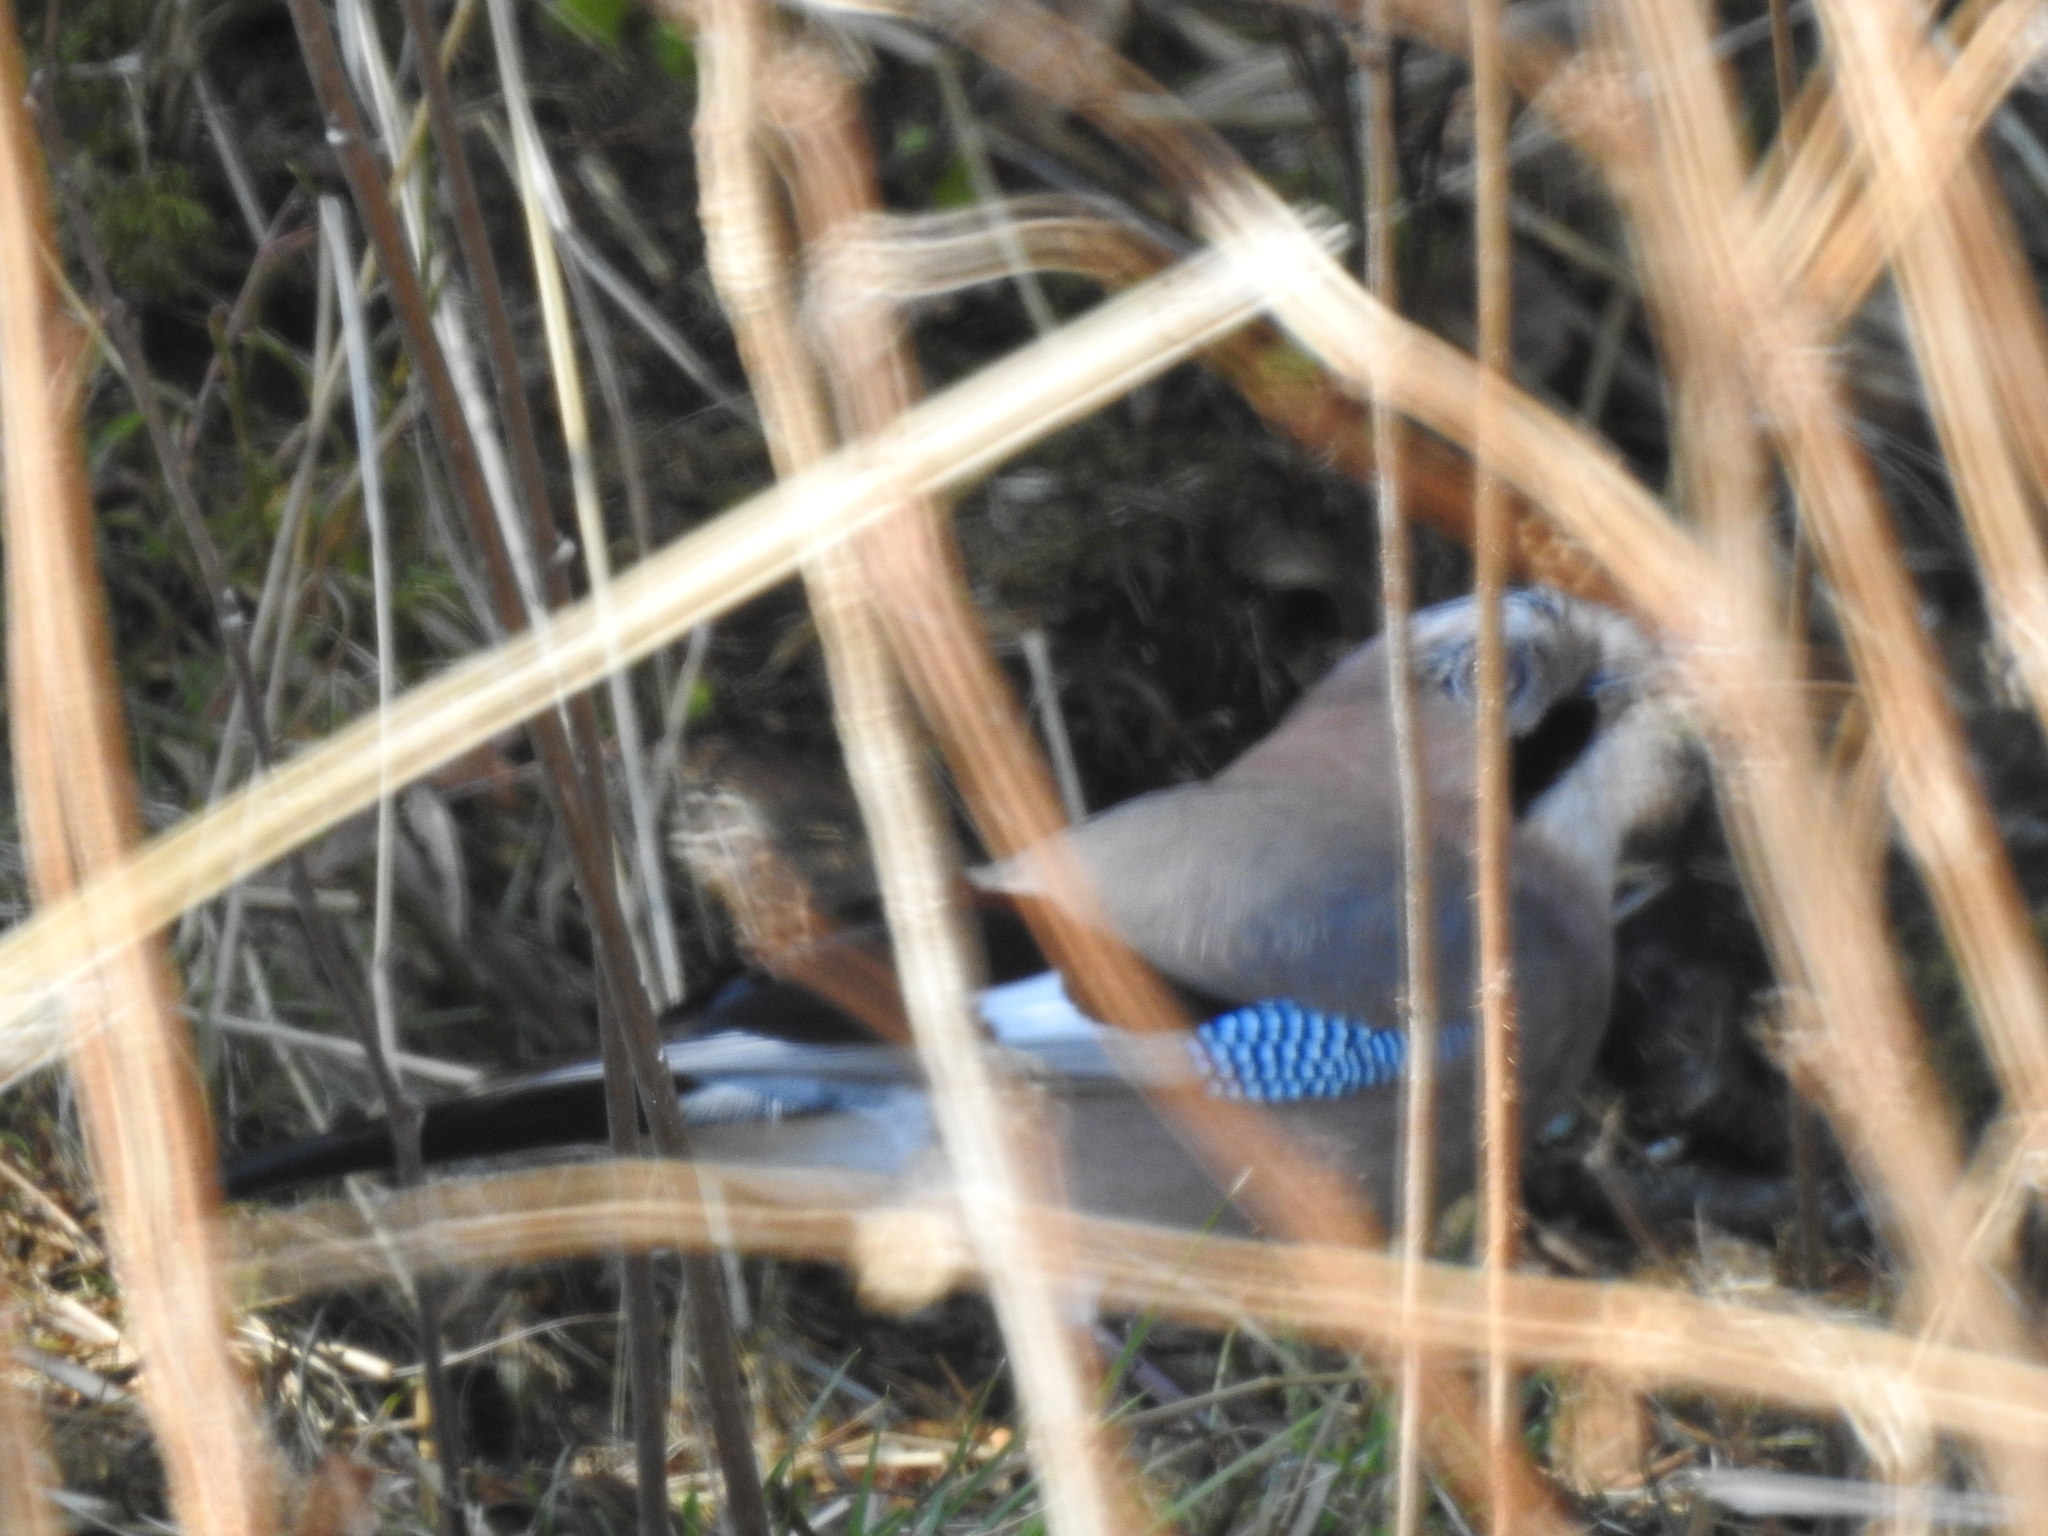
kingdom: Animalia
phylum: Chordata
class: Aves
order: Passeriformes
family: Corvidae
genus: Garrulus
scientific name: Garrulus glandarius
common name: Eurasian jay
